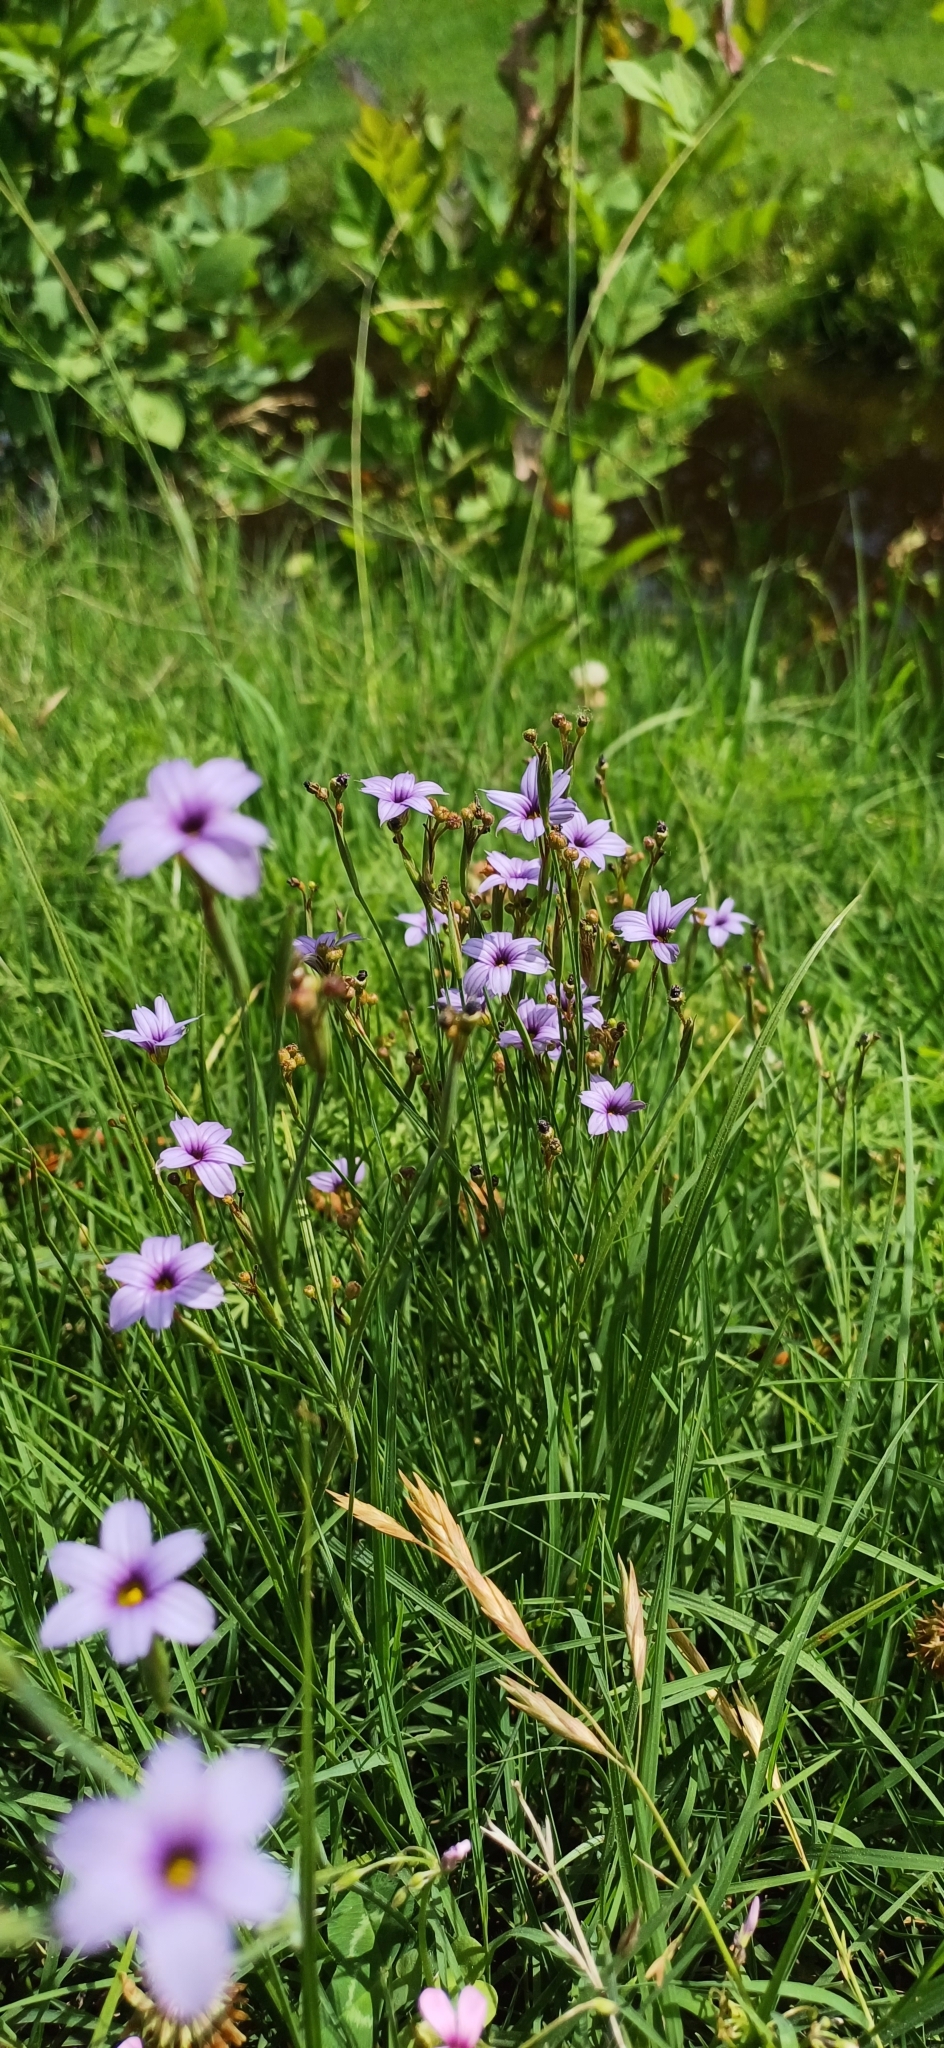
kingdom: Plantae
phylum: Tracheophyta
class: Liliopsida
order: Asparagales
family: Iridaceae
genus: Sisyrinchium
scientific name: Sisyrinchium platense
